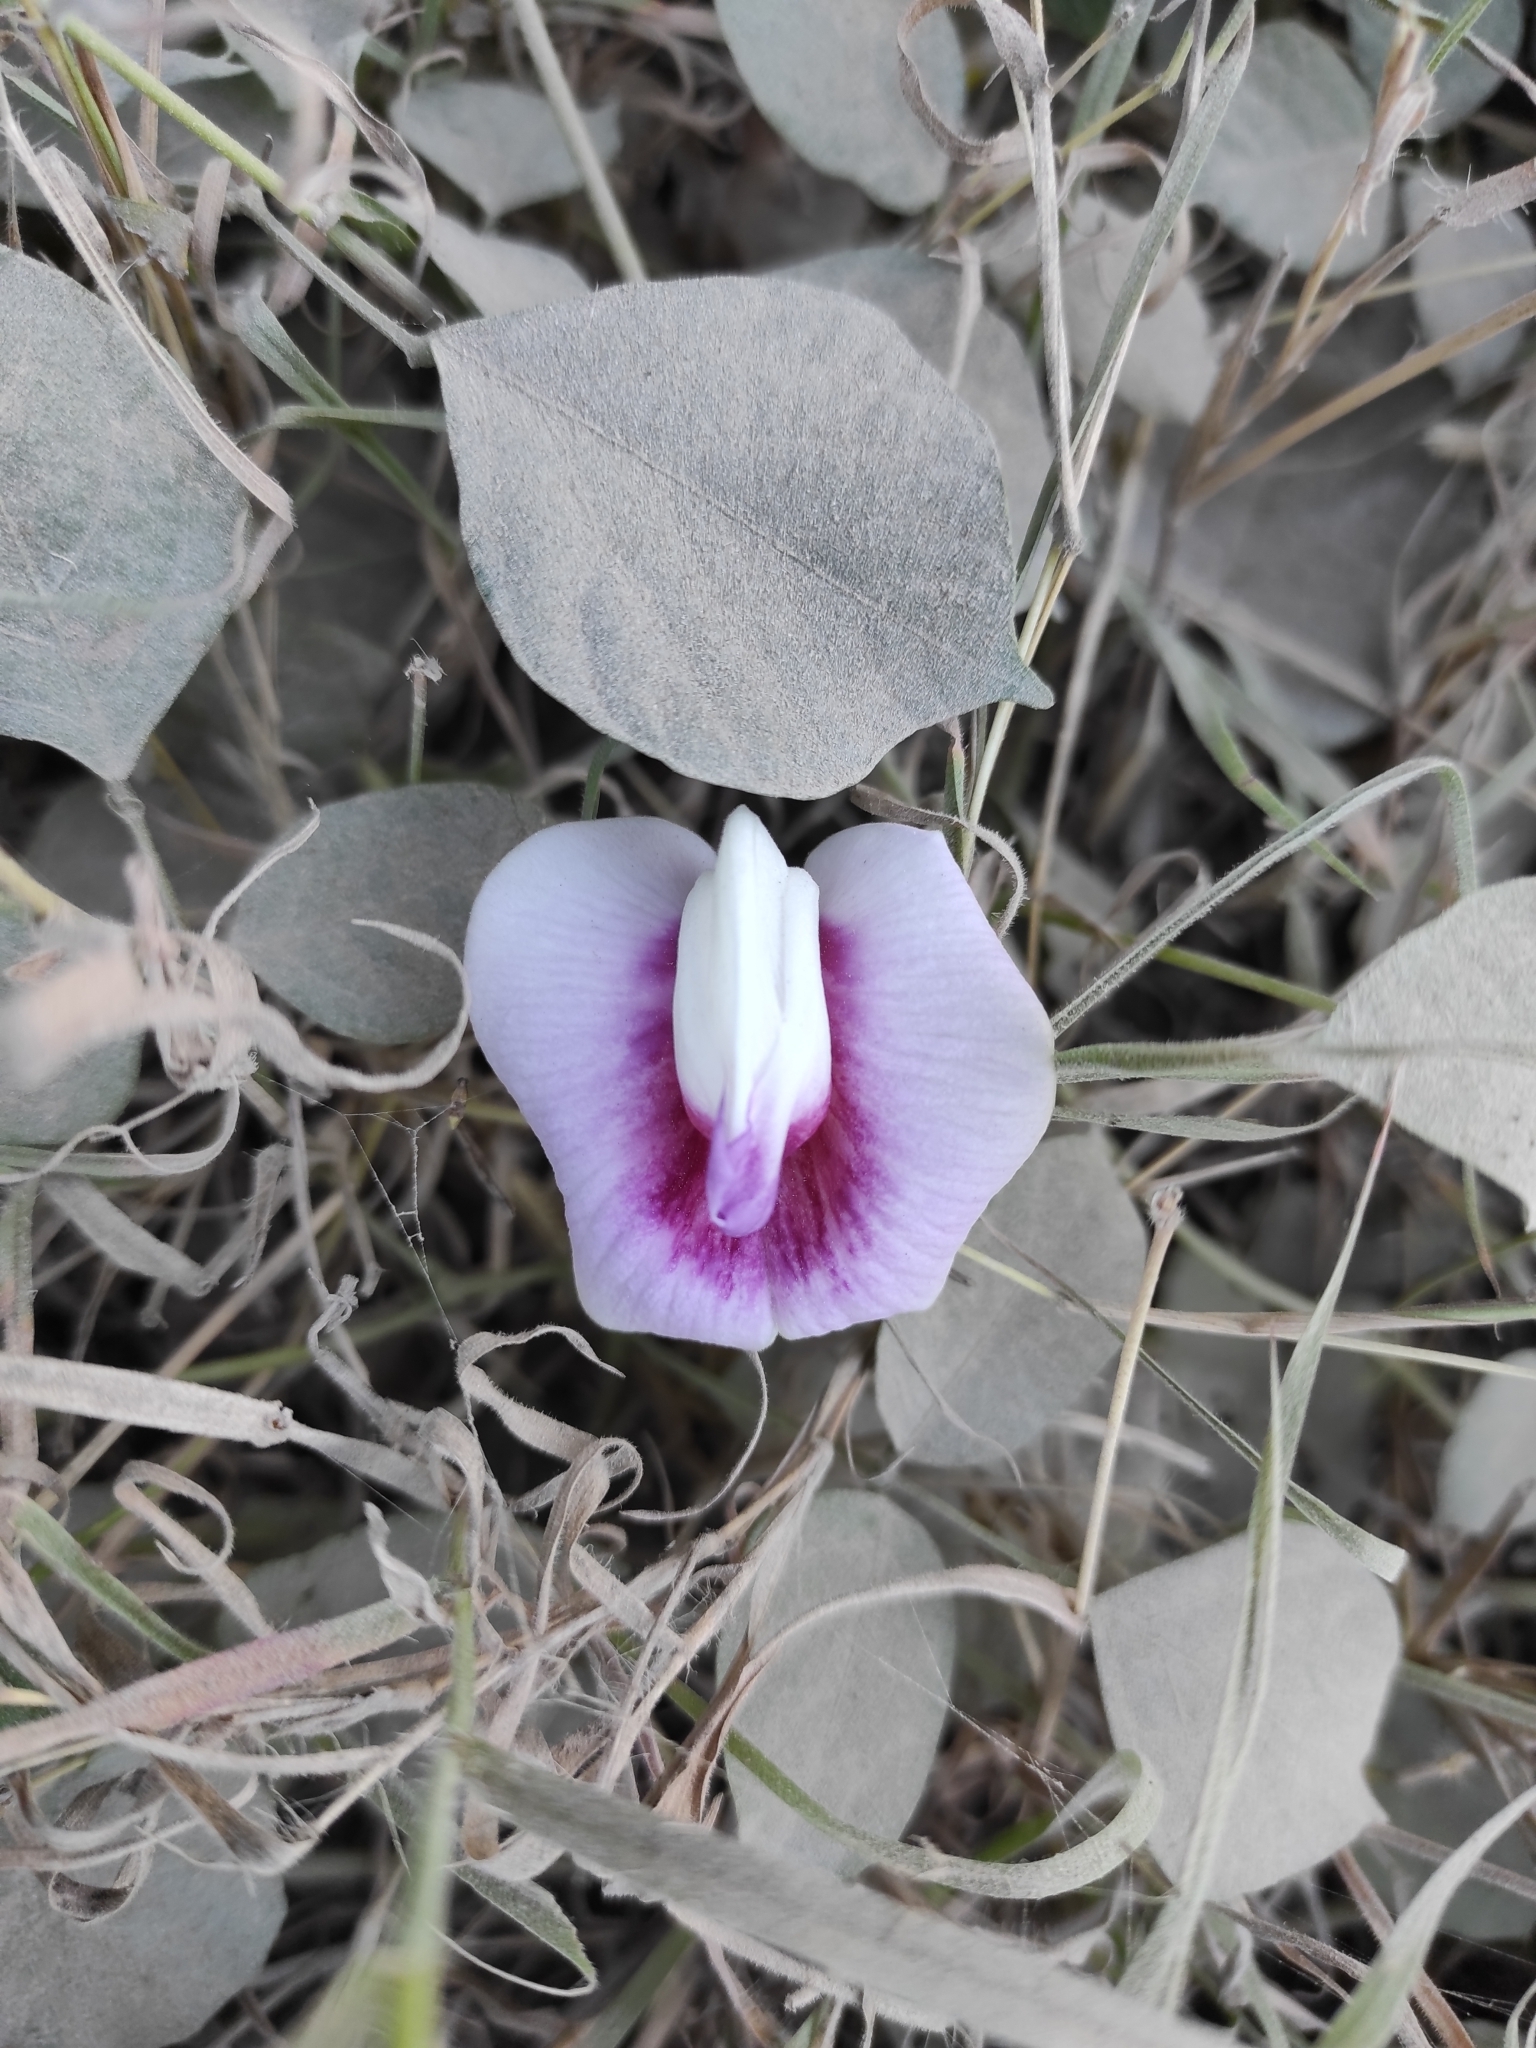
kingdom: Plantae
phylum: Tracheophyta
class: Magnoliopsida
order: Fabales
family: Fabaceae
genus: Centrosema
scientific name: Centrosema plumieri
